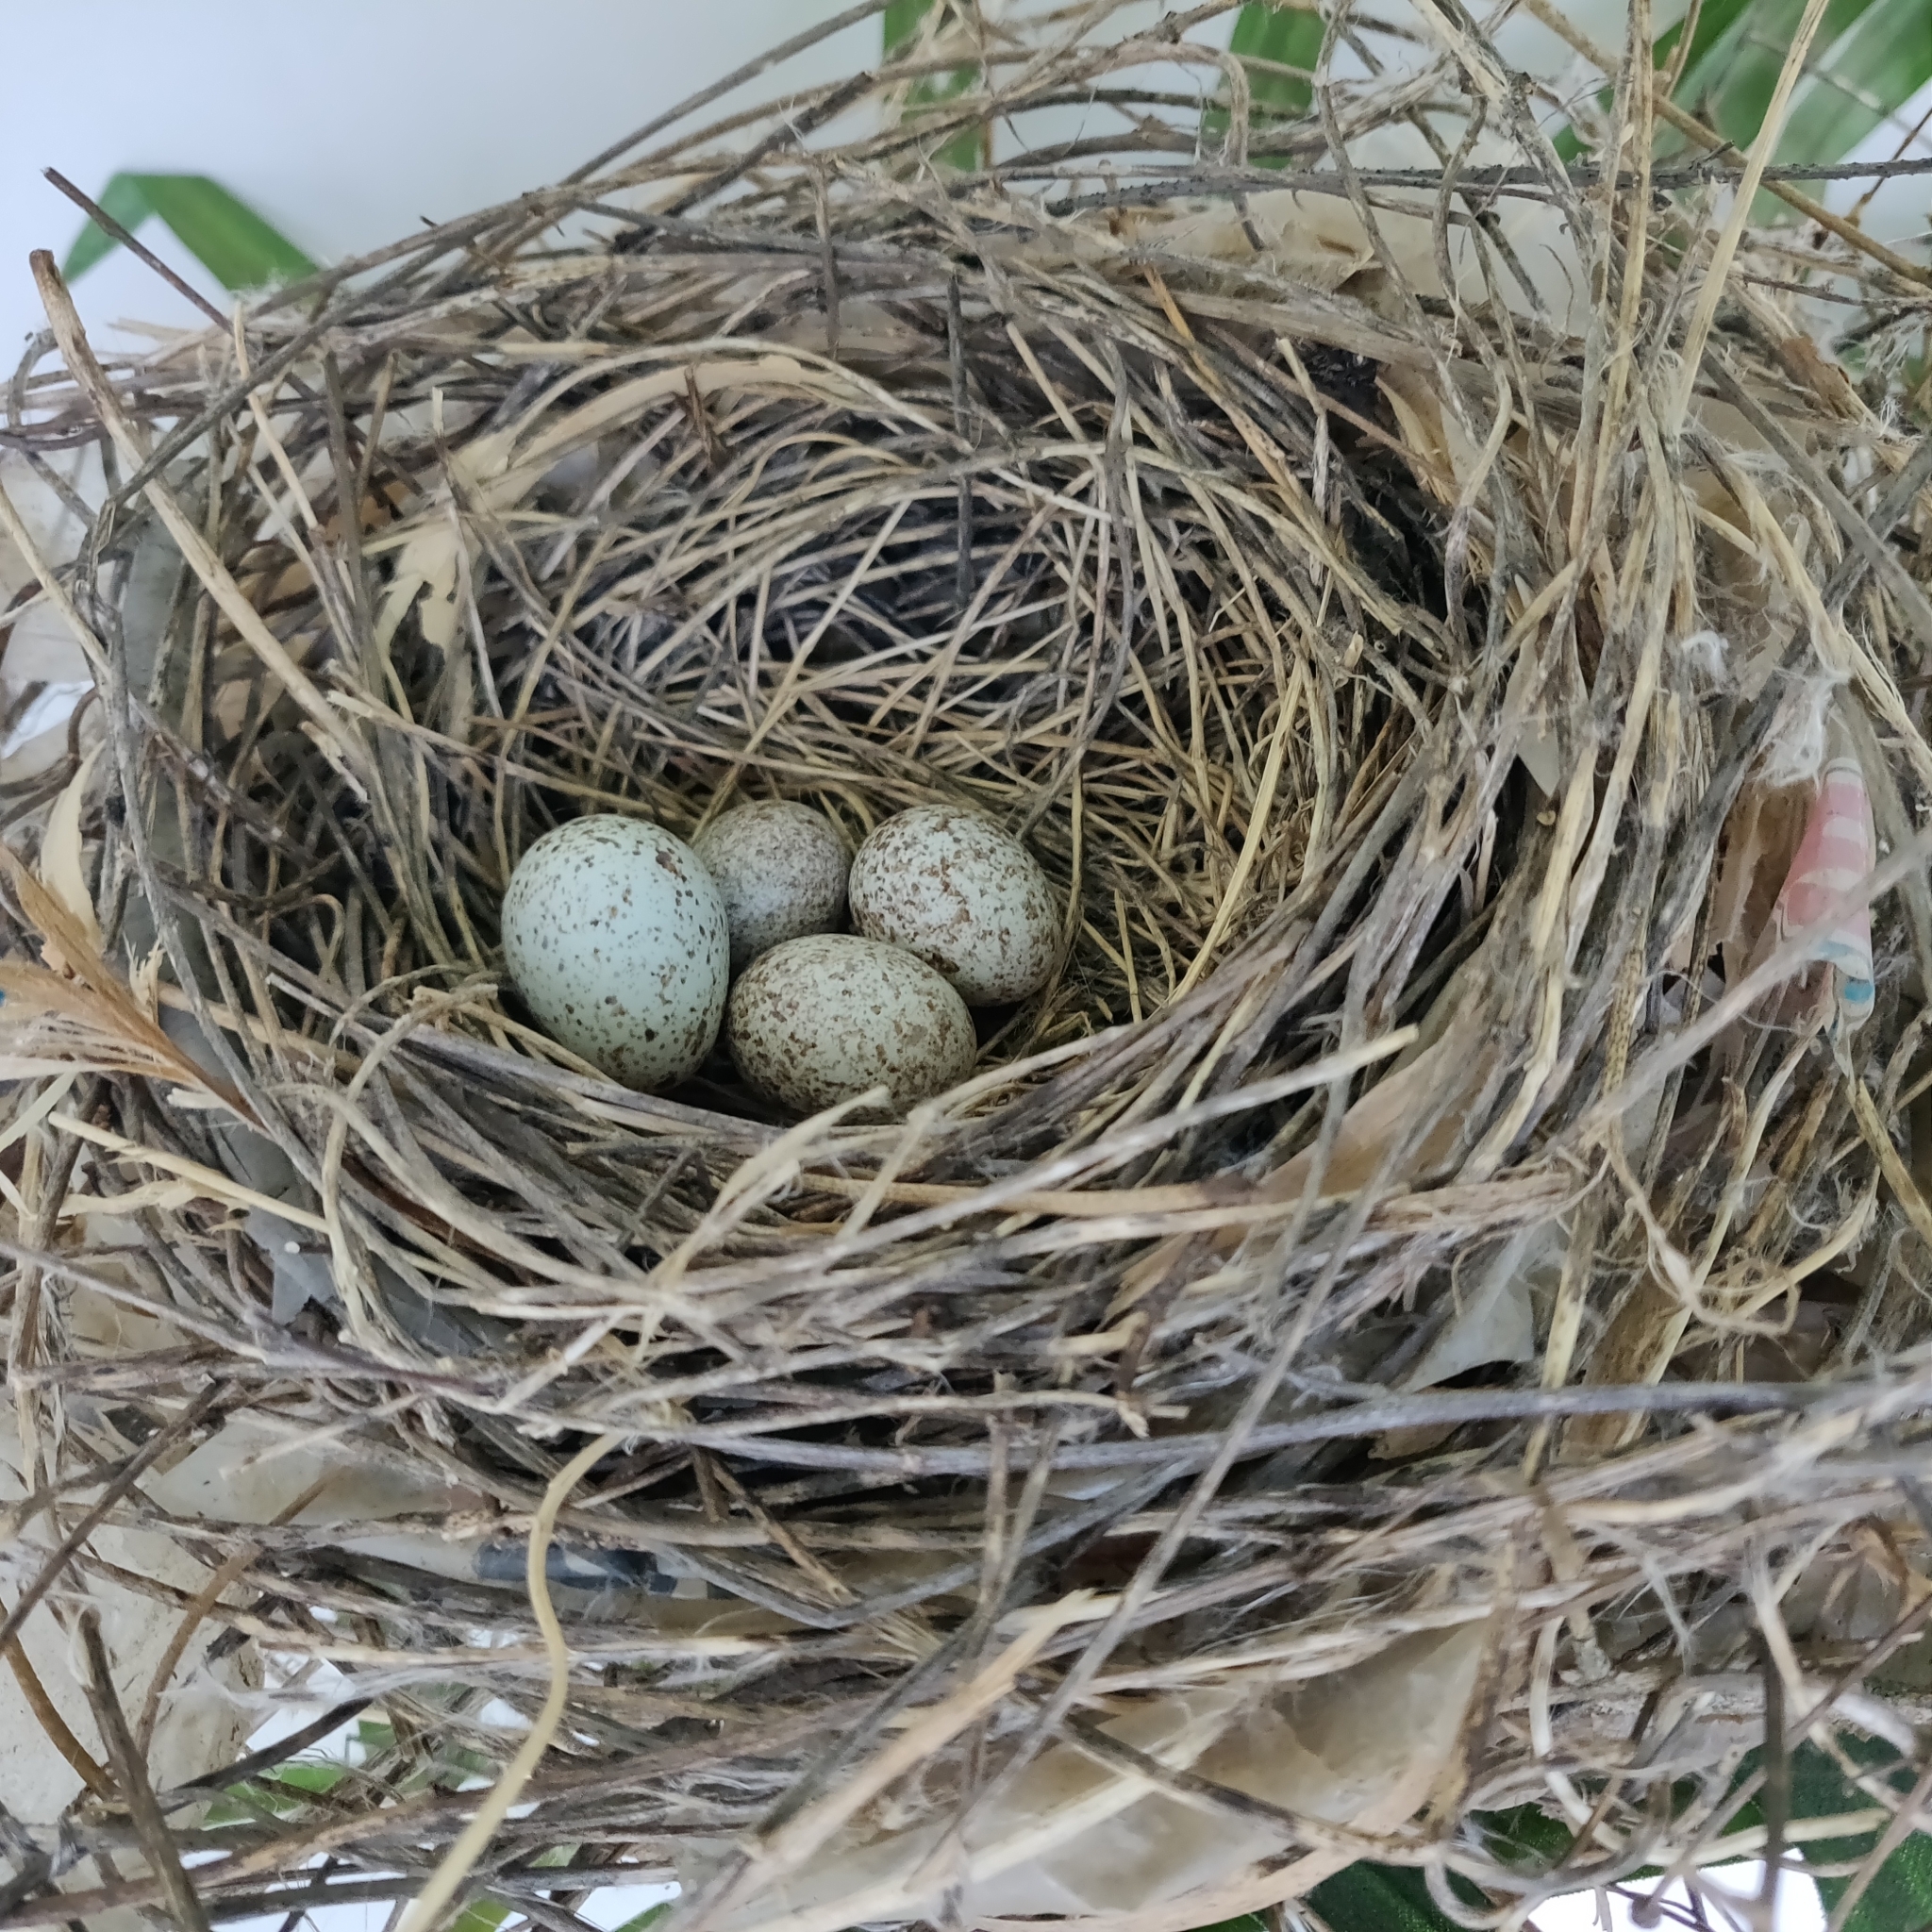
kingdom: Animalia
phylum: Chordata
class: Aves
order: Passeriformes
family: Cardinalidae
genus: Cardinalis
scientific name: Cardinalis cardinalis
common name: Northern cardinal
